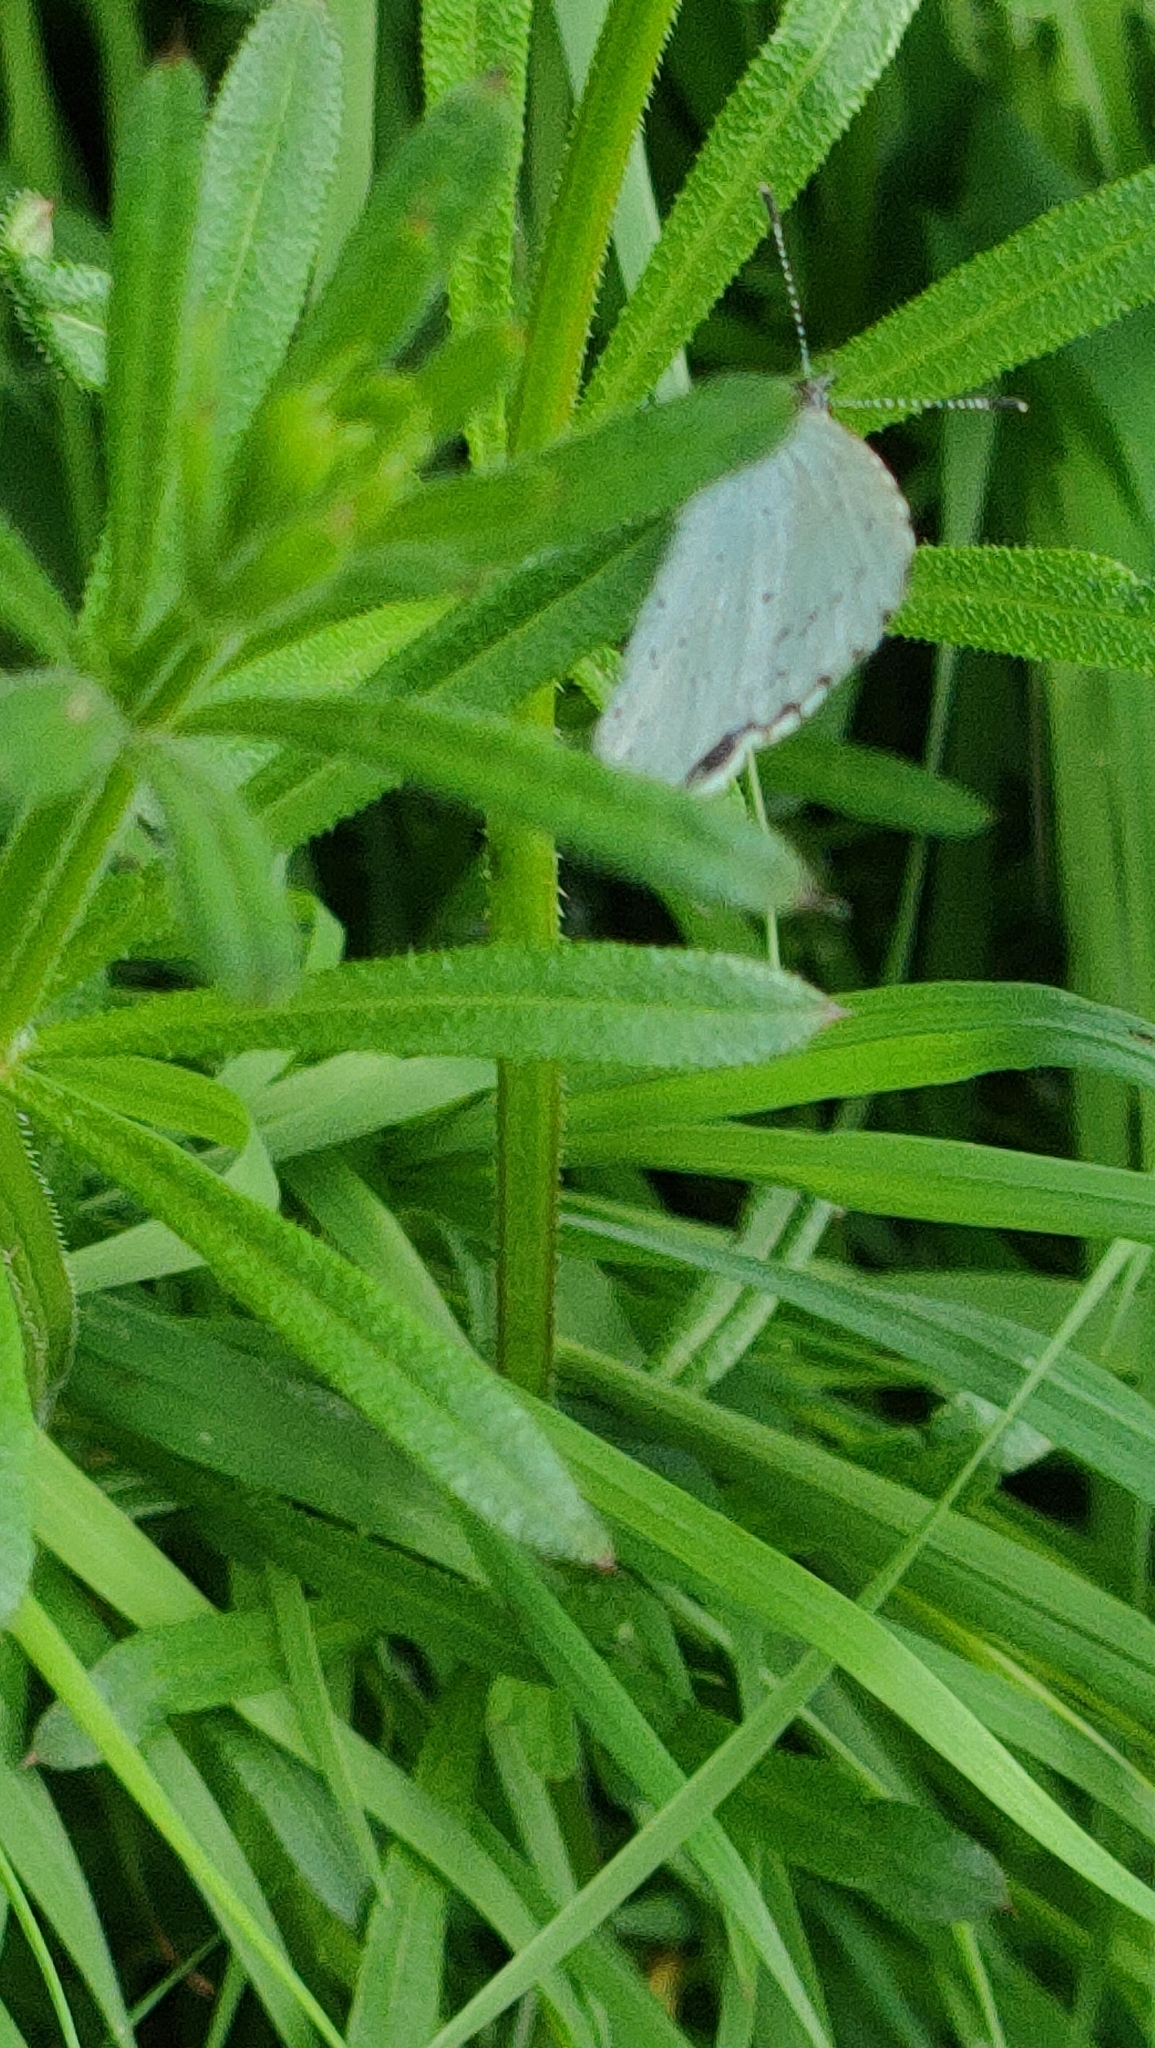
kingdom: Animalia
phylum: Arthropoda
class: Insecta
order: Lepidoptera
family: Lycaenidae
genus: Celastrina
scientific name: Celastrina argiolus
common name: Holly blue
